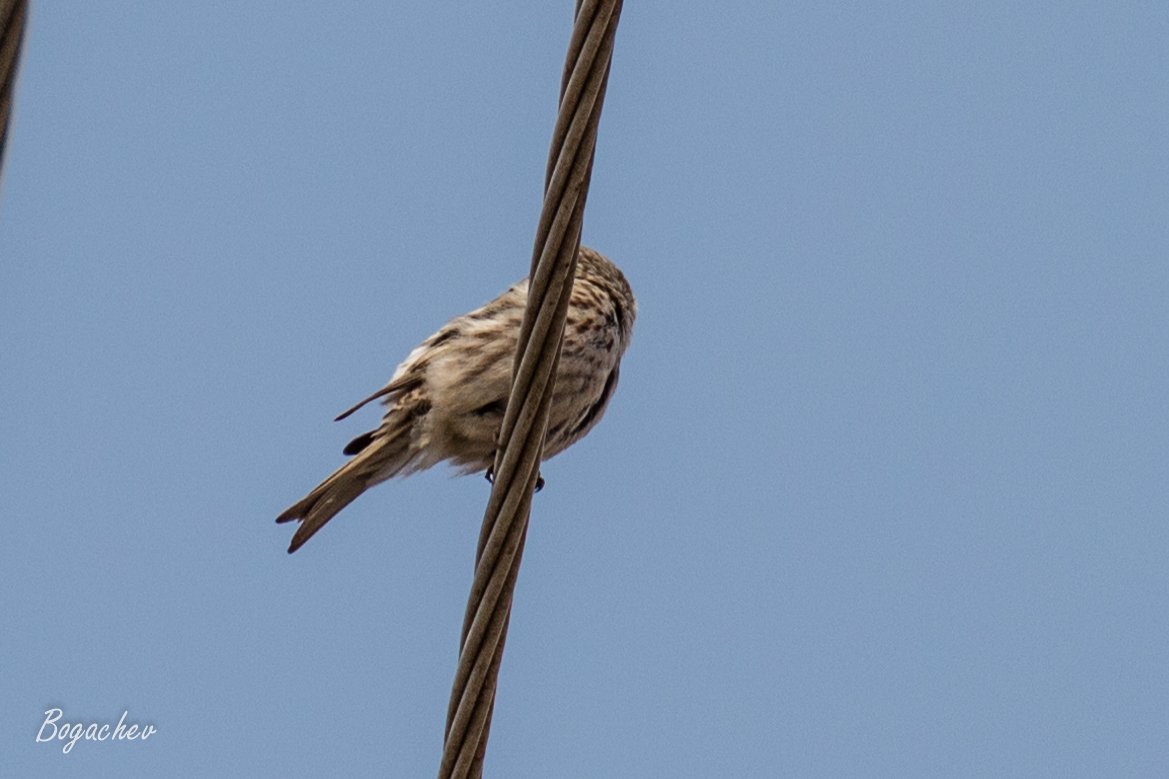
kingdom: Animalia
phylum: Chordata
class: Aves
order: Passeriformes
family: Fringillidae
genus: Acanthis
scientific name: Acanthis flammea
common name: Common redpoll
